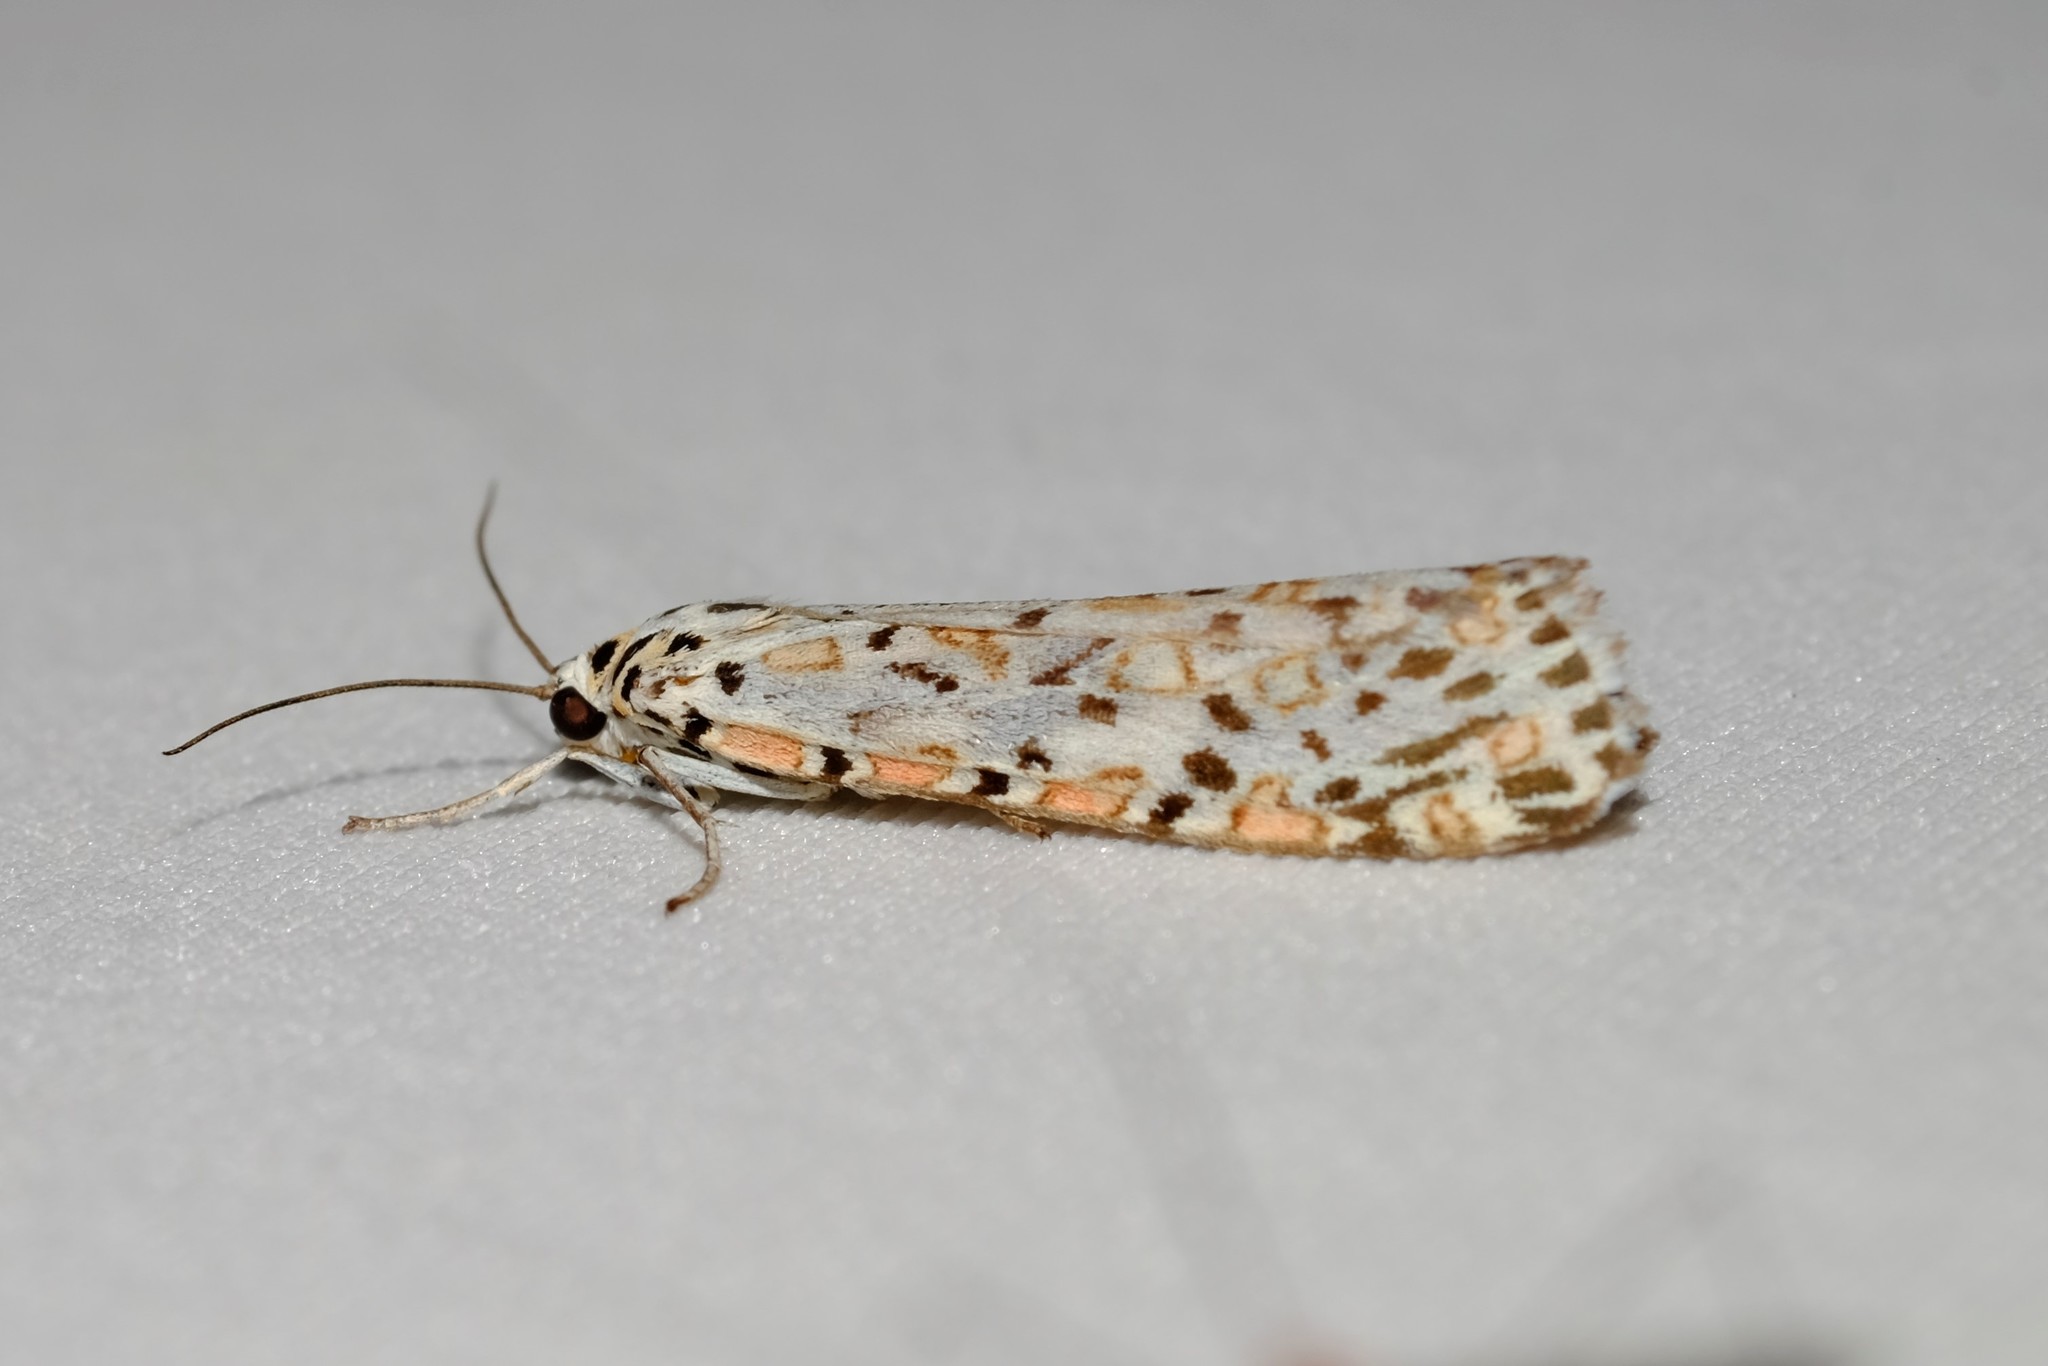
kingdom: Animalia
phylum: Arthropoda
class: Insecta
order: Lepidoptera
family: Erebidae
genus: Utetheisa
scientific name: Utetheisa pulchelloides
